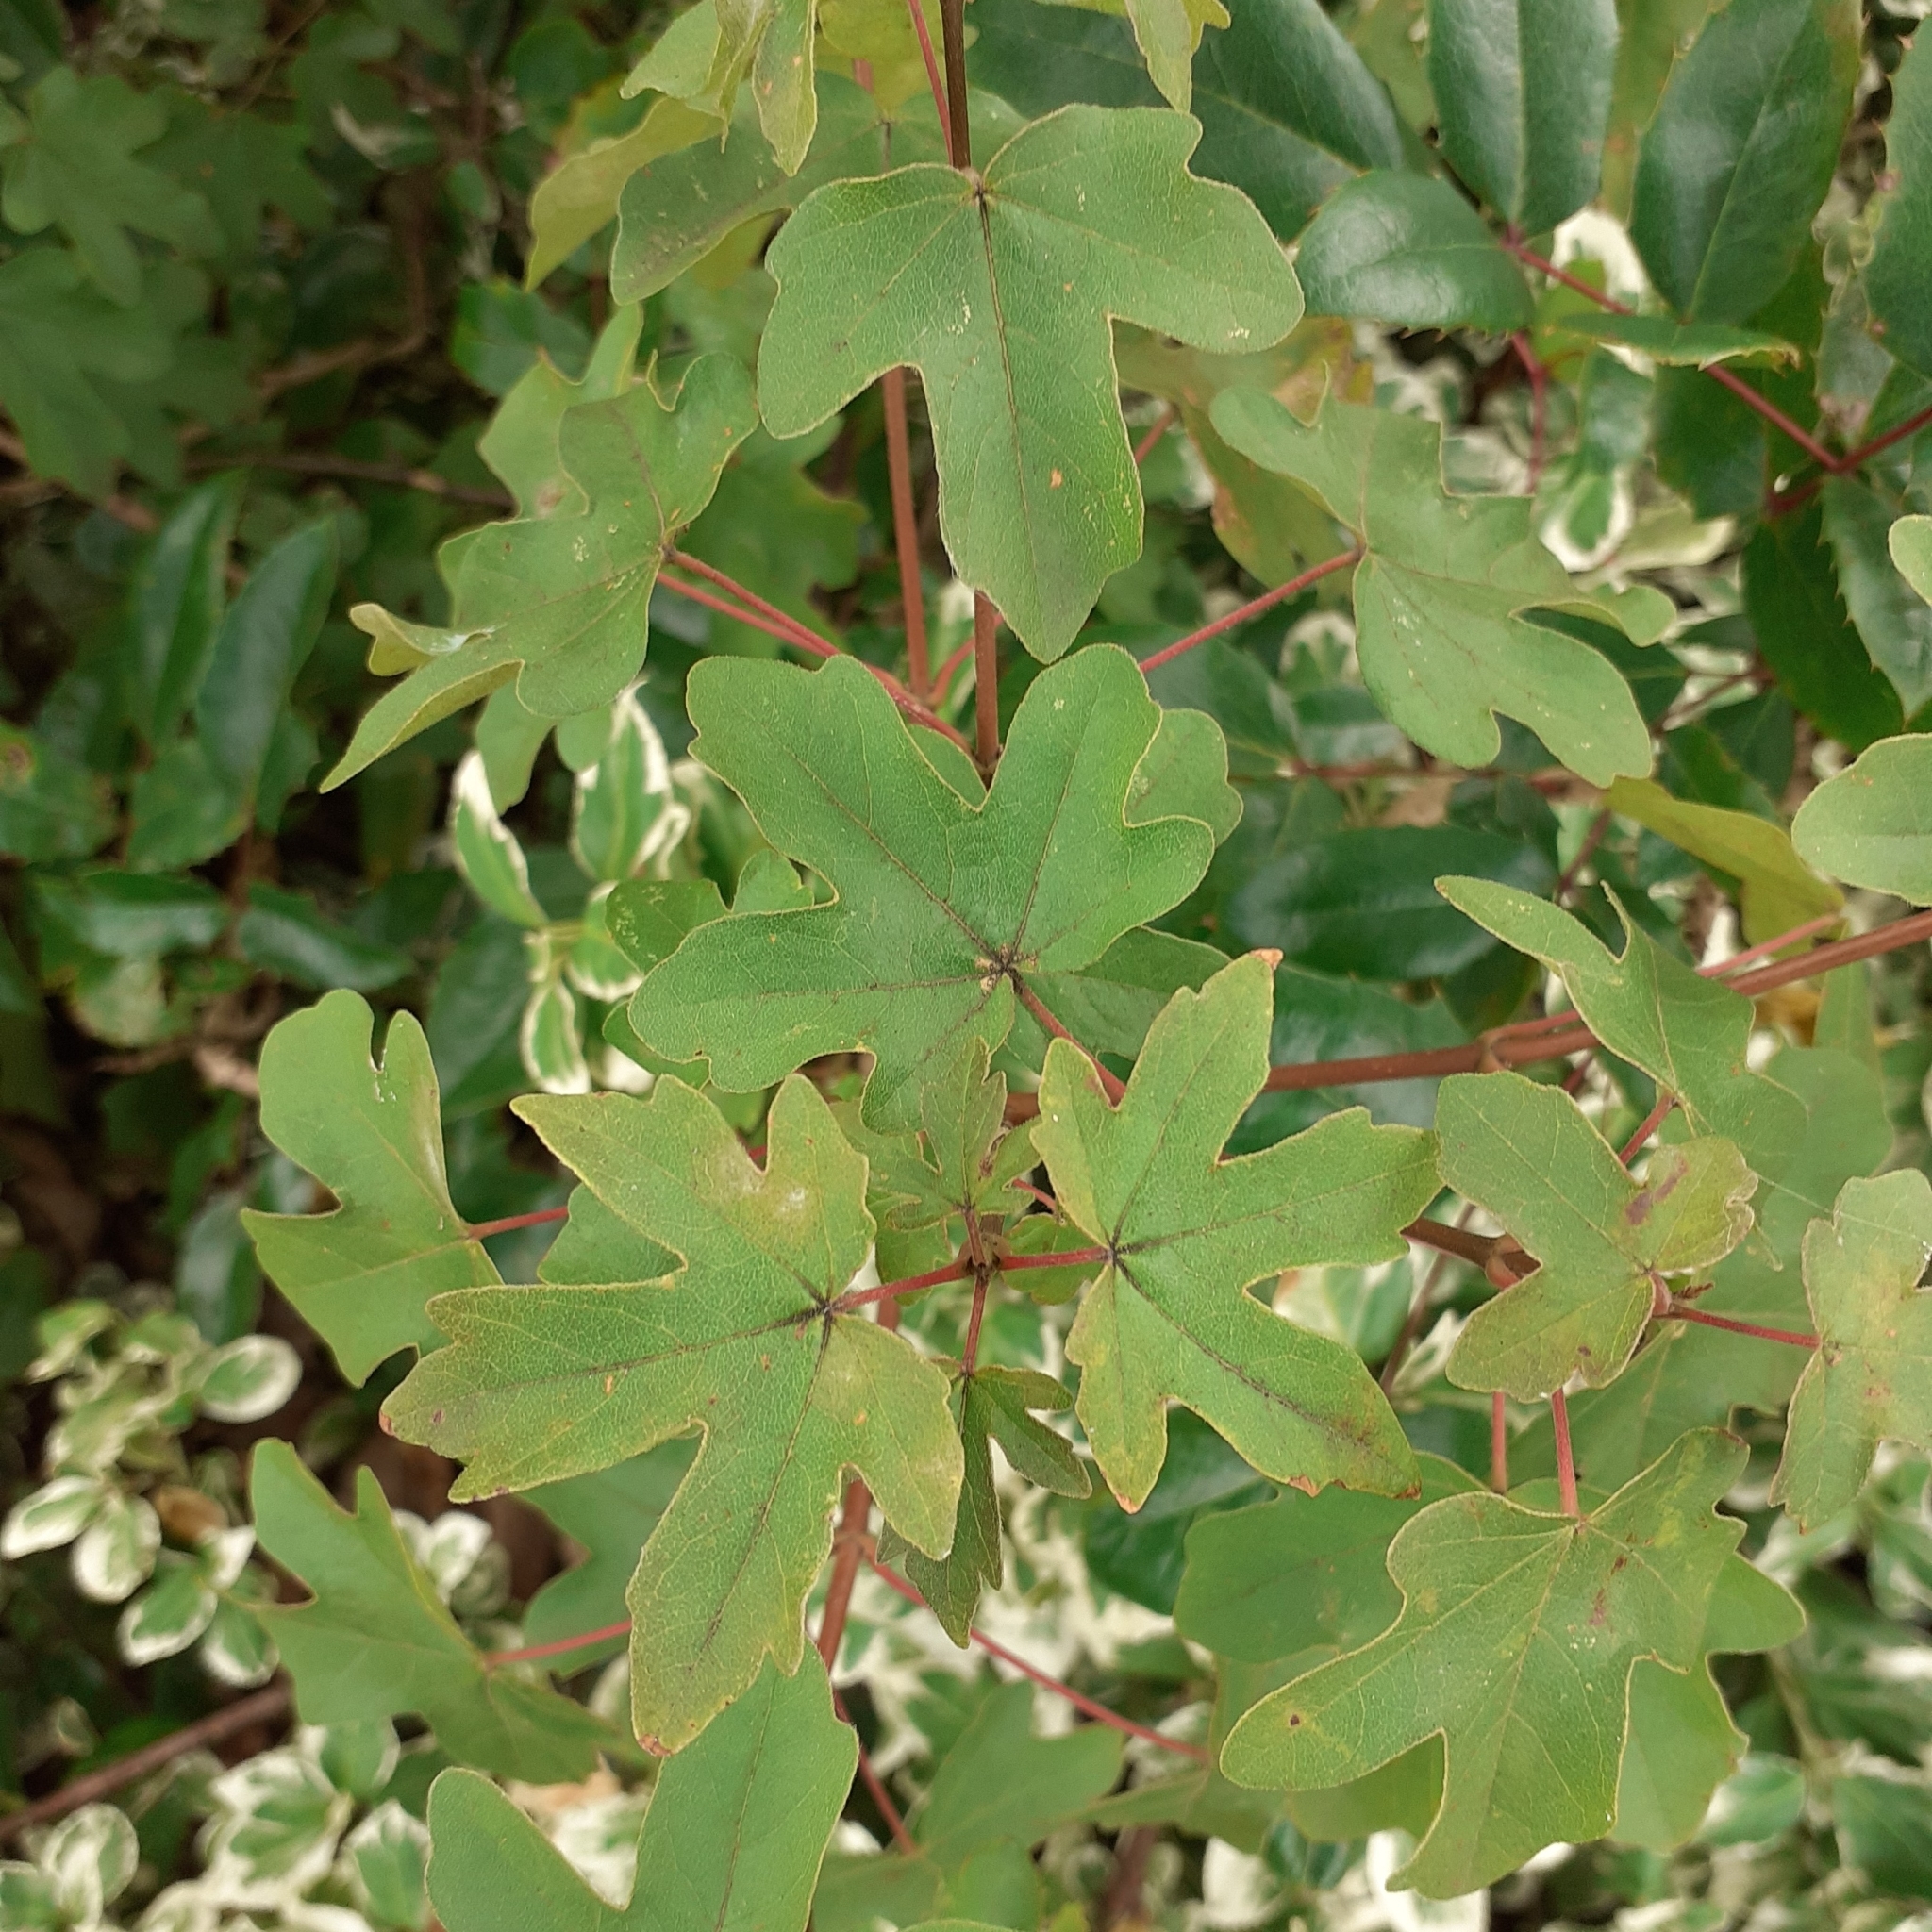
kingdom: Plantae
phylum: Tracheophyta
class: Magnoliopsida
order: Sapindales
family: Sapindaceae
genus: Acer
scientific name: Acer campestre
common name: Field maple
